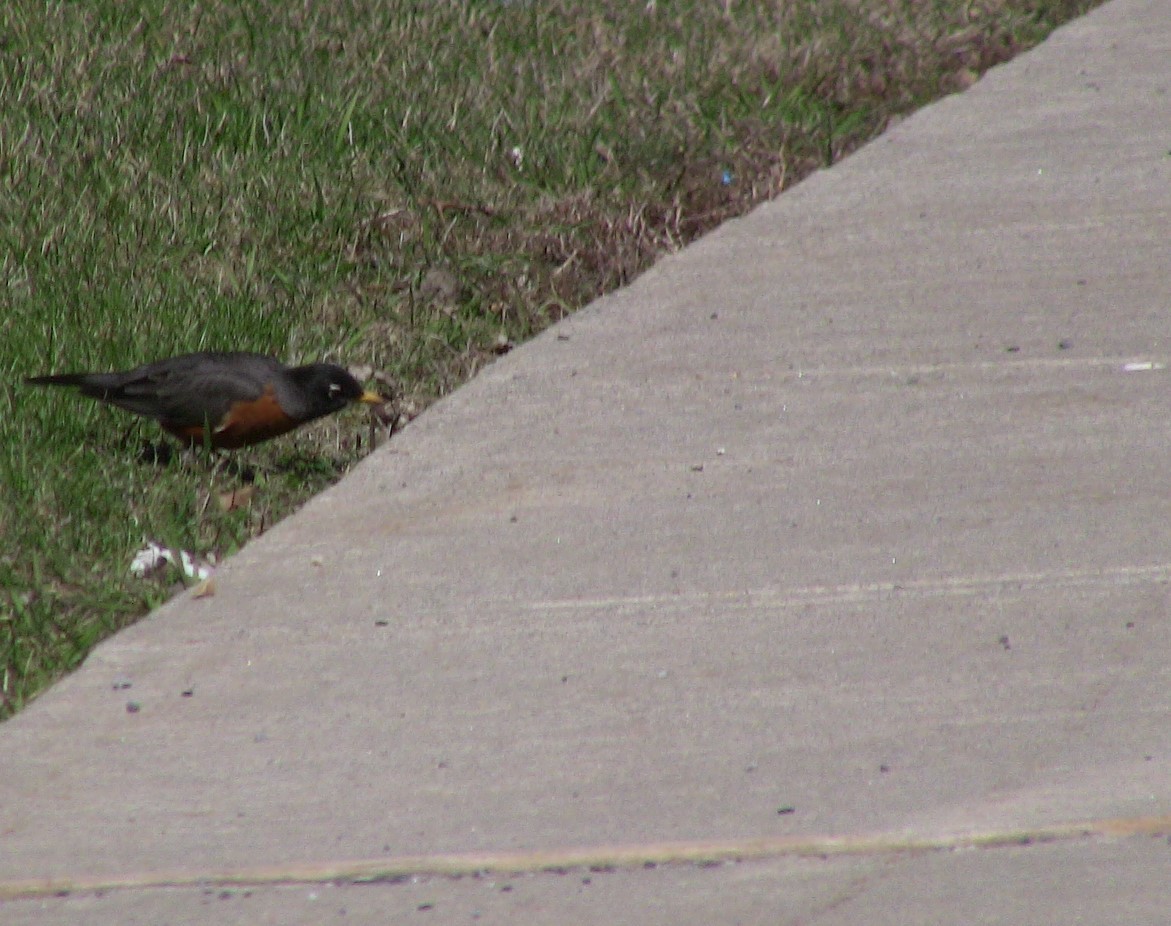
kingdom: Animalia
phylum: Chordata
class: Aves
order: Passeriformes
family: Turdidae
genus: Turdus
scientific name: Turdus migratorius
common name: American robin
